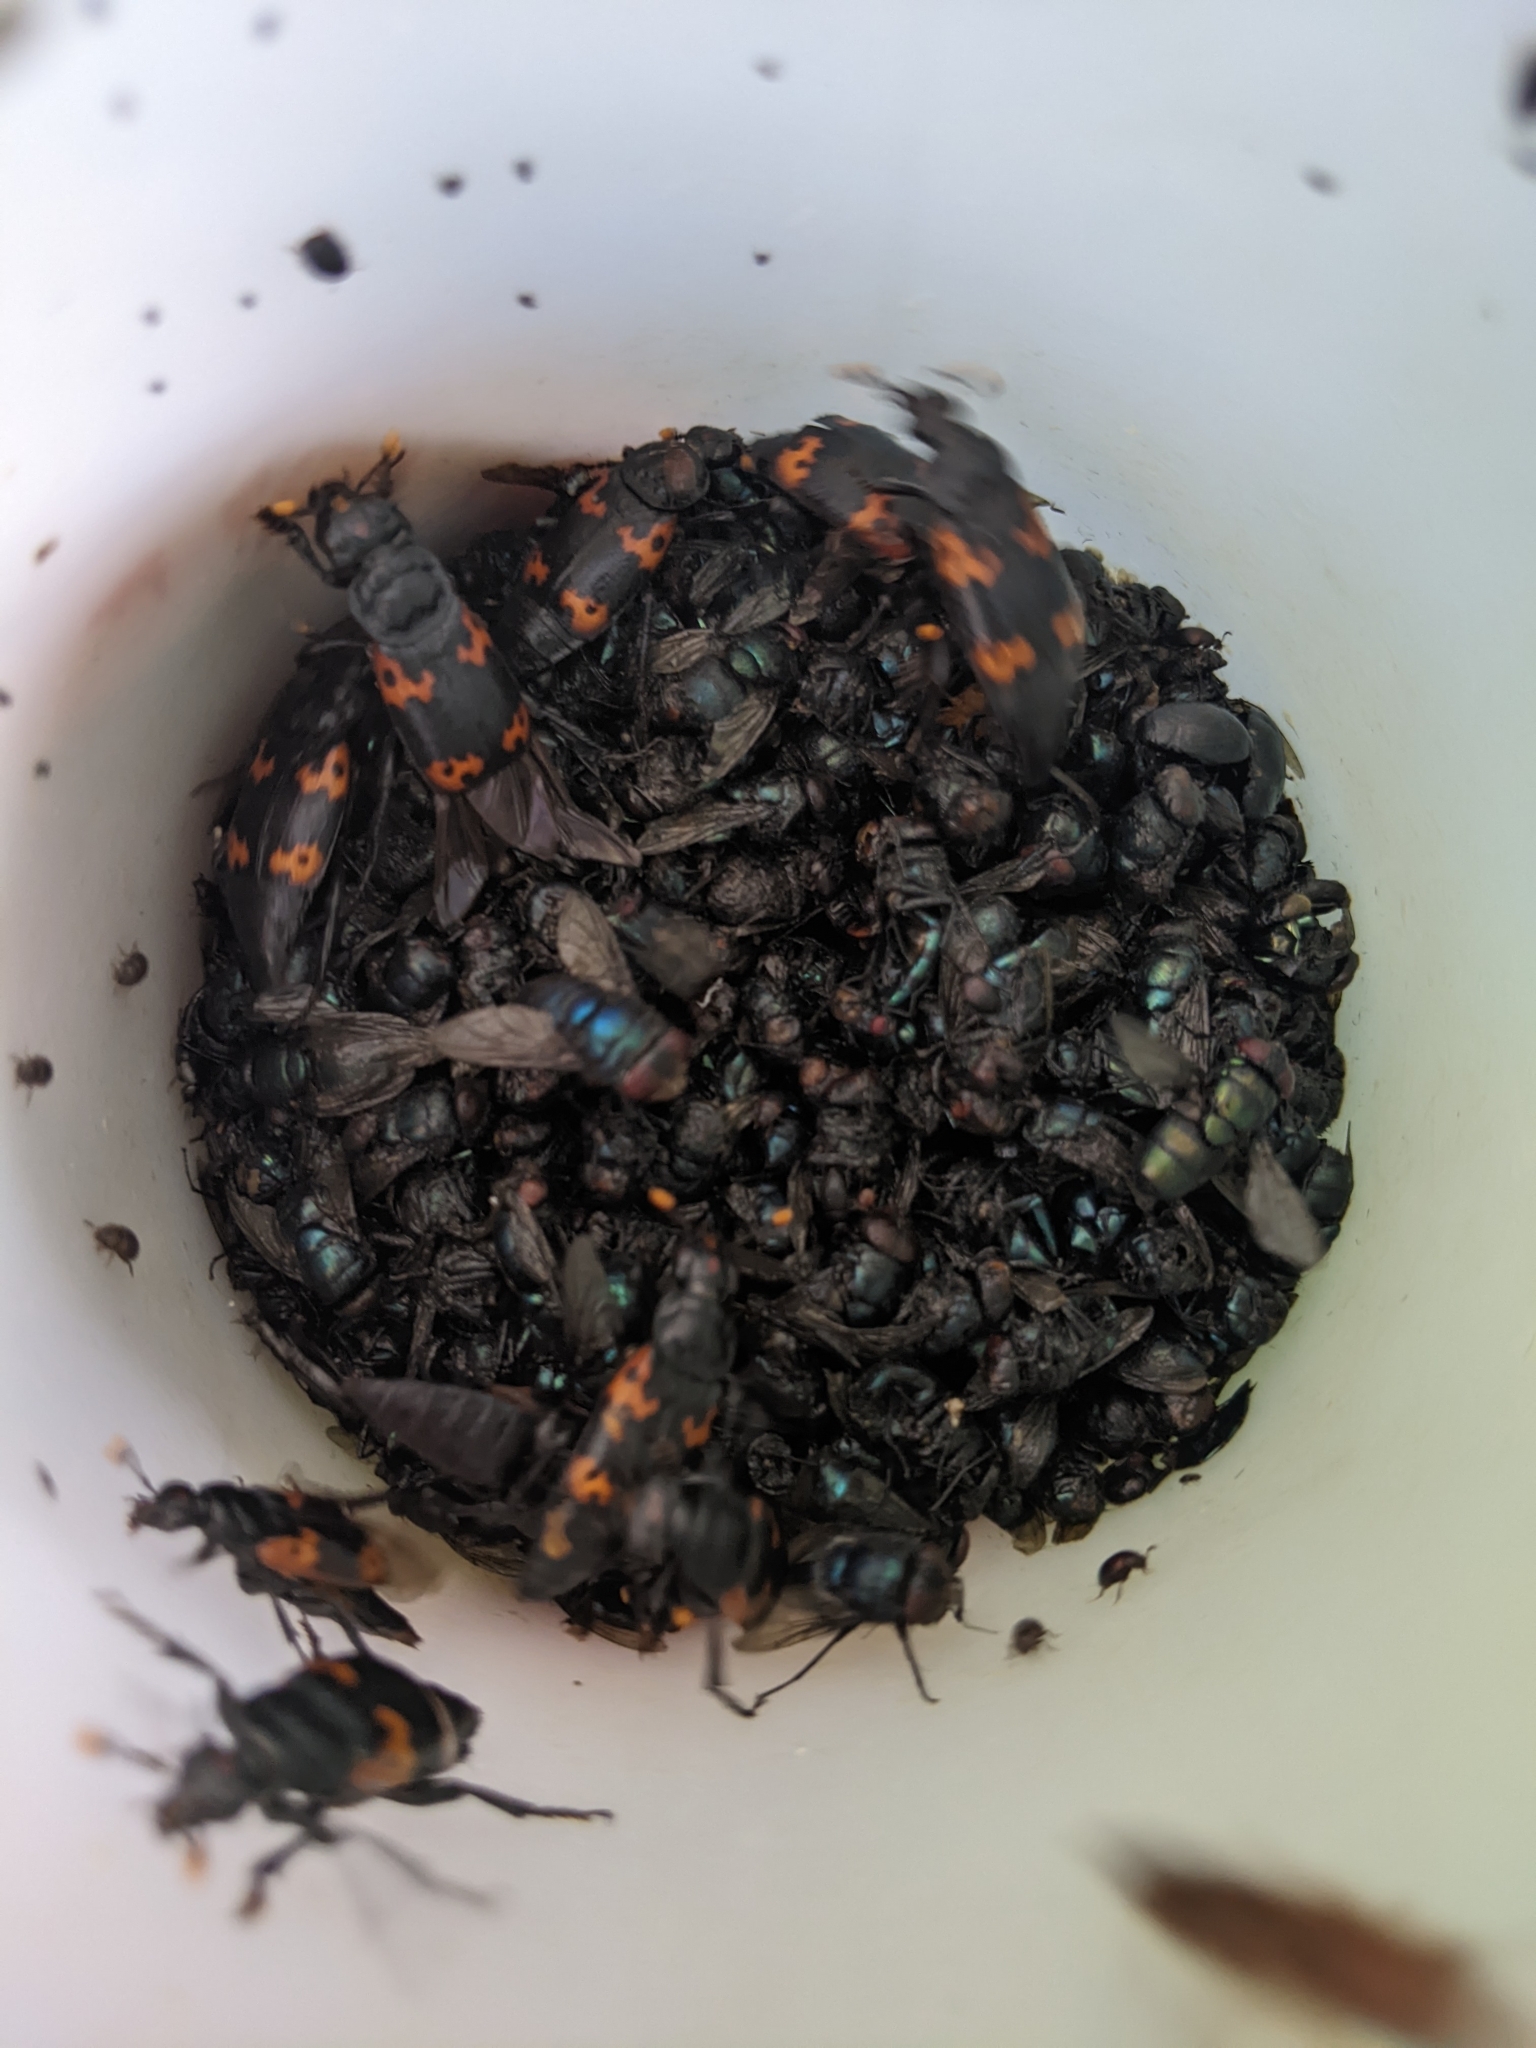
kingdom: Animalia
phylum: Arthropoda
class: Insecta
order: Coleoptera
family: Staphylinidae
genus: Nicrophorus
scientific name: Nicrophorus nepalensis
